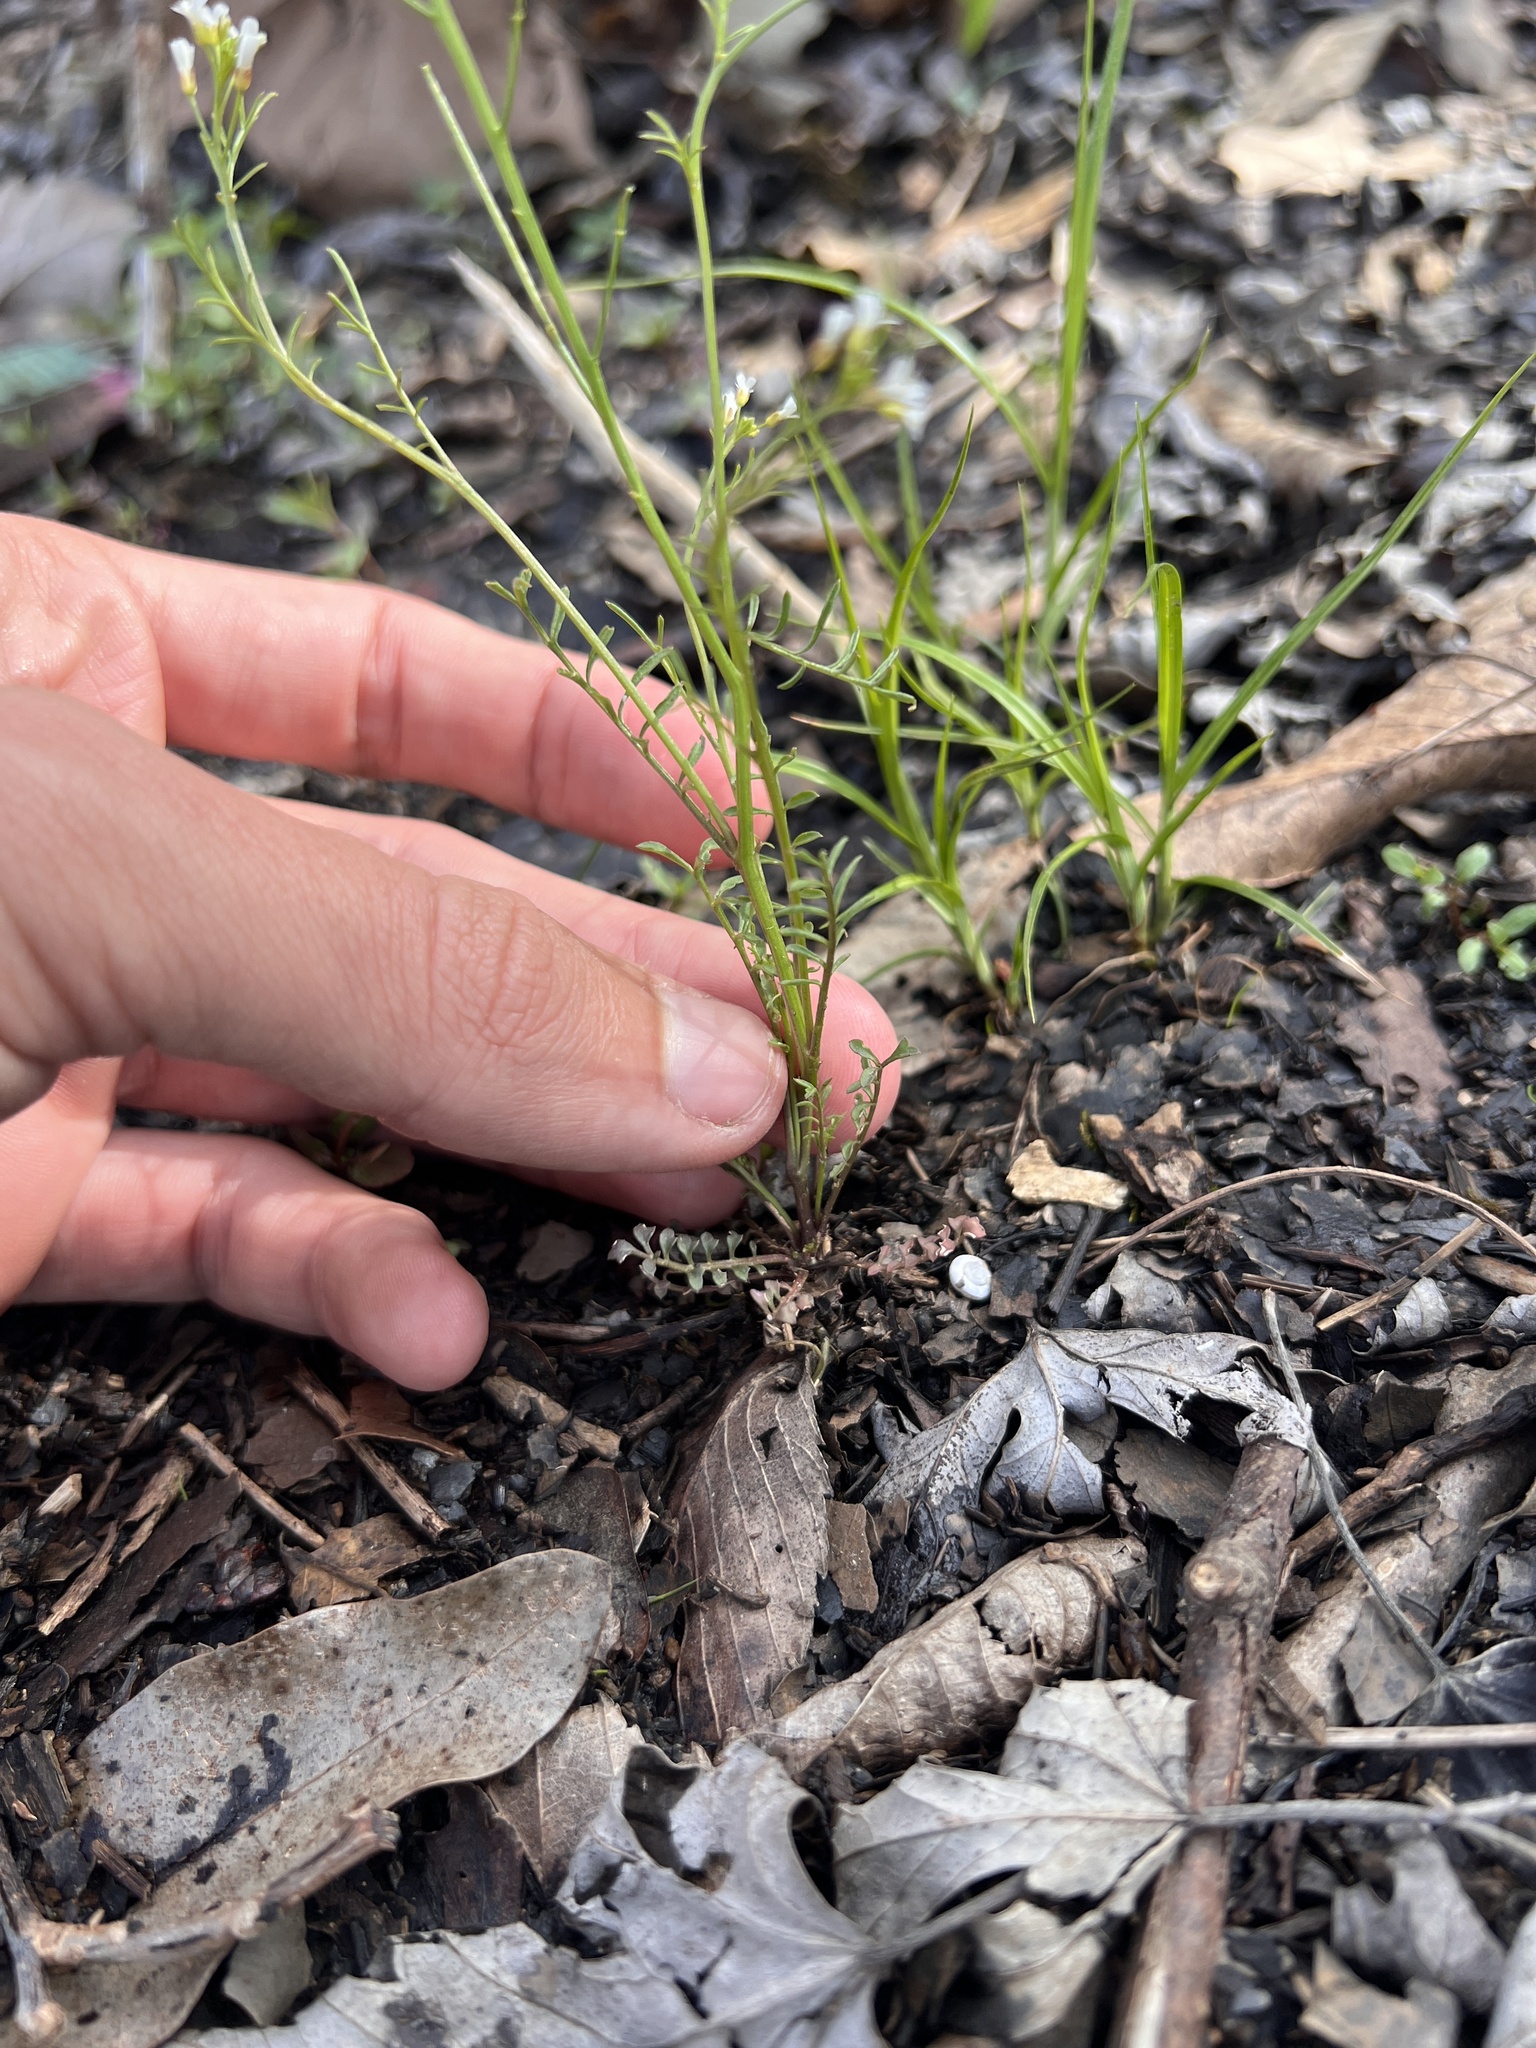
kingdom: Plantae
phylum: Tracheophyta
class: Magnoliopsida
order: Brassicales
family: Brassicaceae
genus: Cardamine
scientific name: Cardamine parviflora
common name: Sand bittercress
